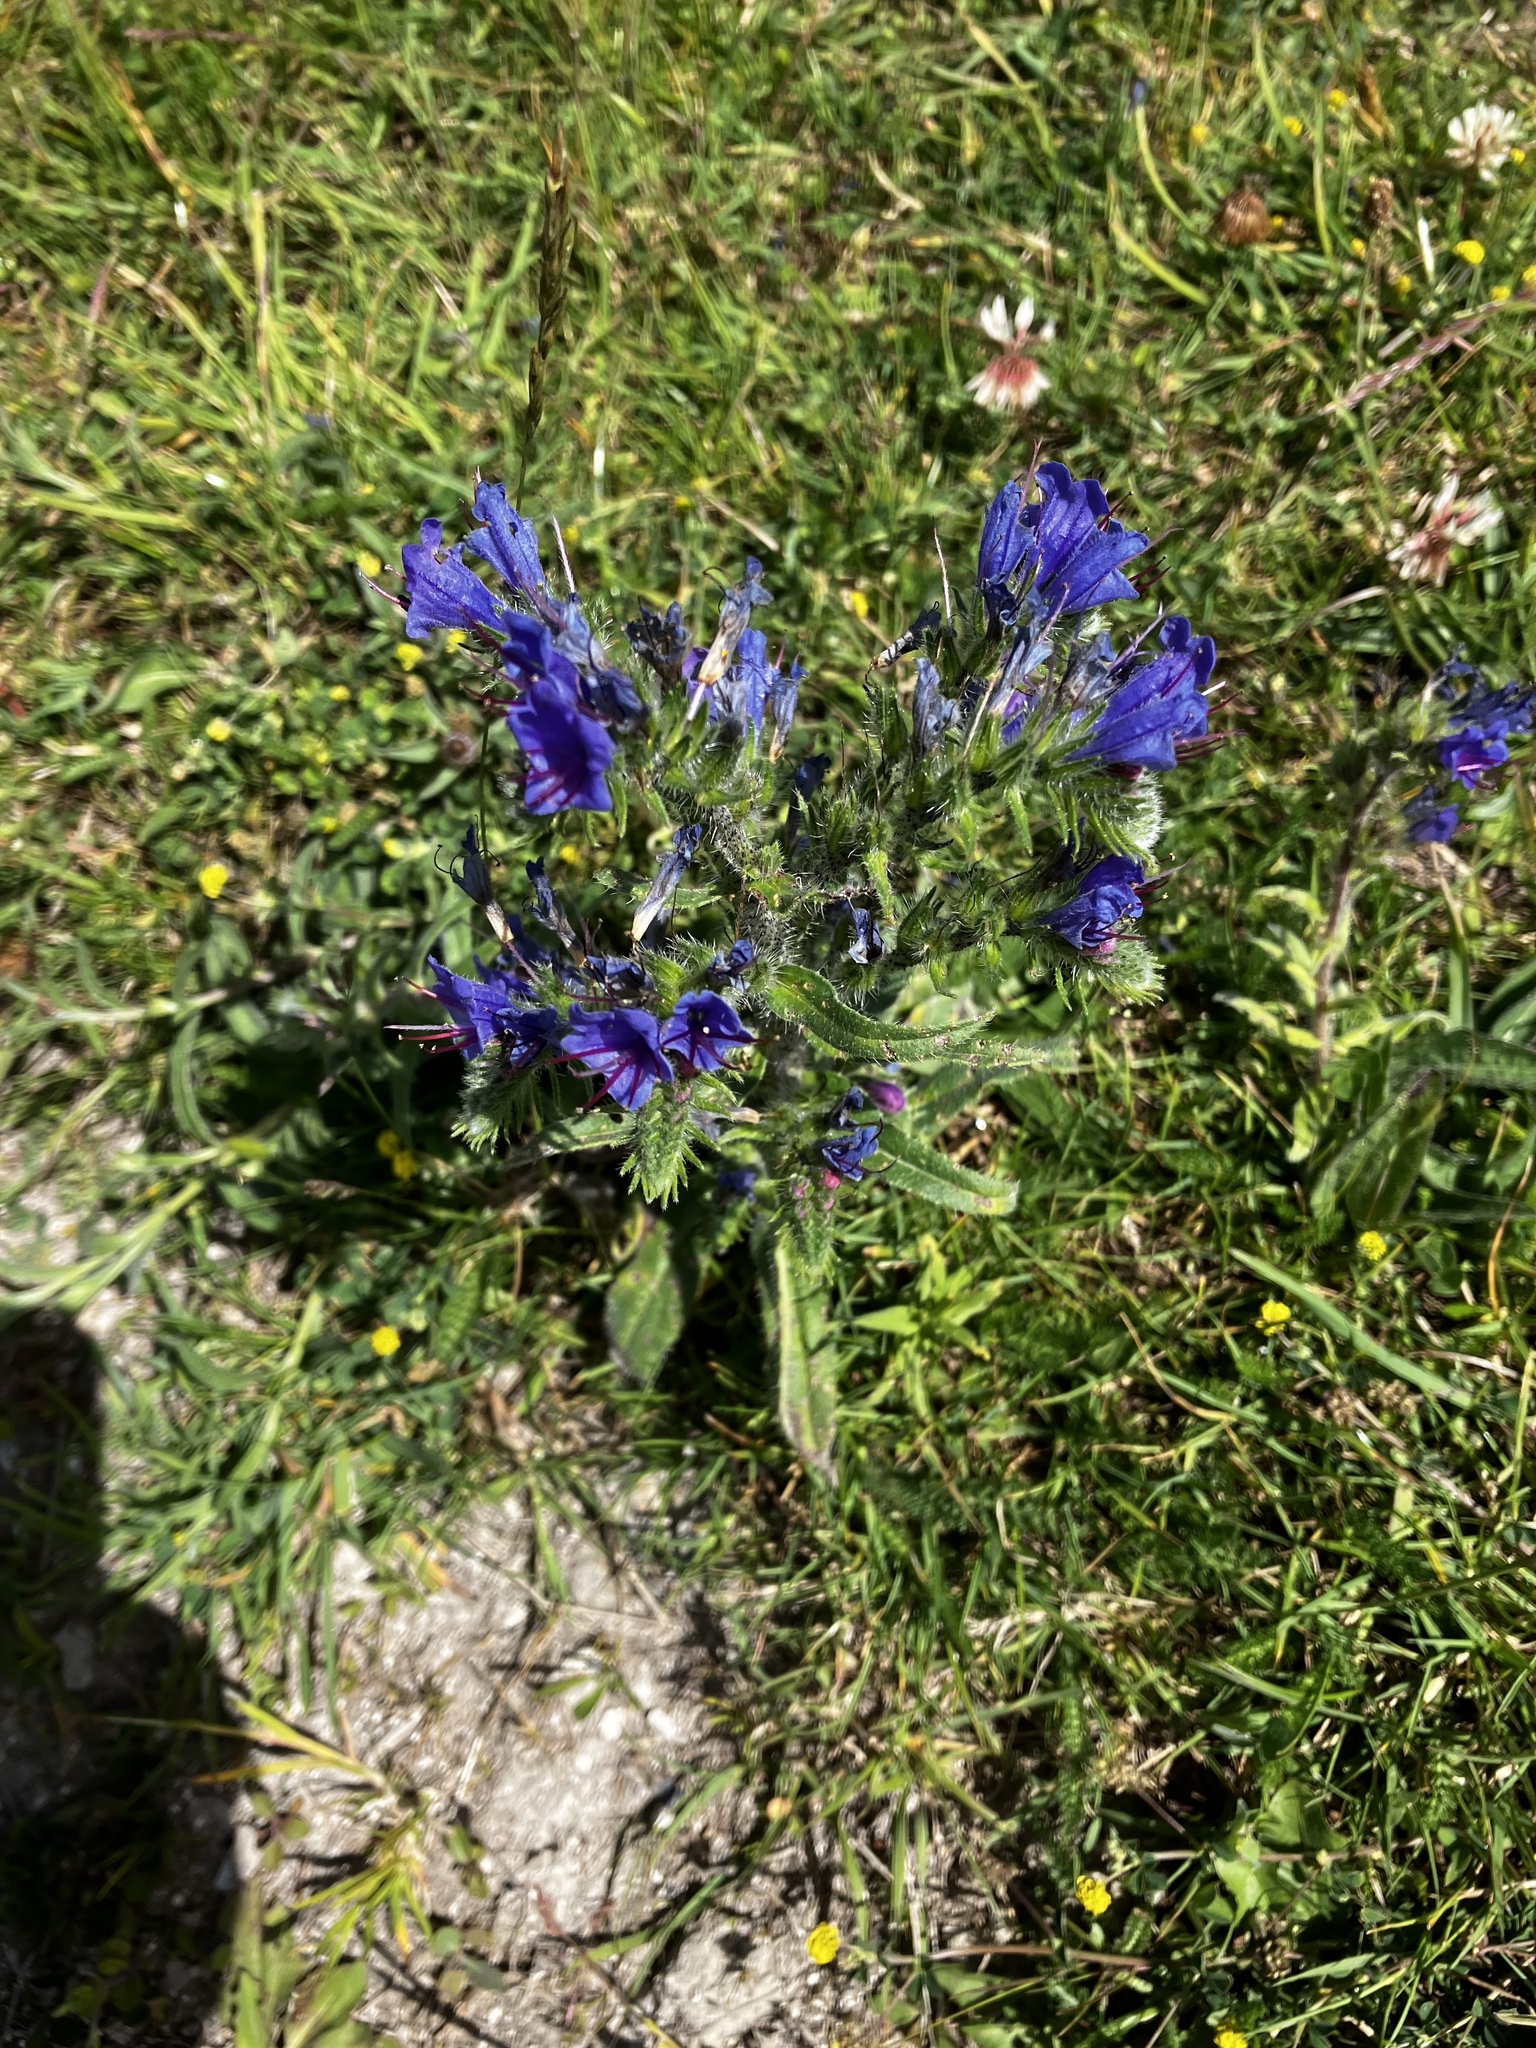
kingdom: Plantae
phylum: Tracheophyta
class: Magnoliopsida
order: Boraginales
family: Boraginaceae
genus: Echium
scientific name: Echium vulgare
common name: Common viper's bugloss
